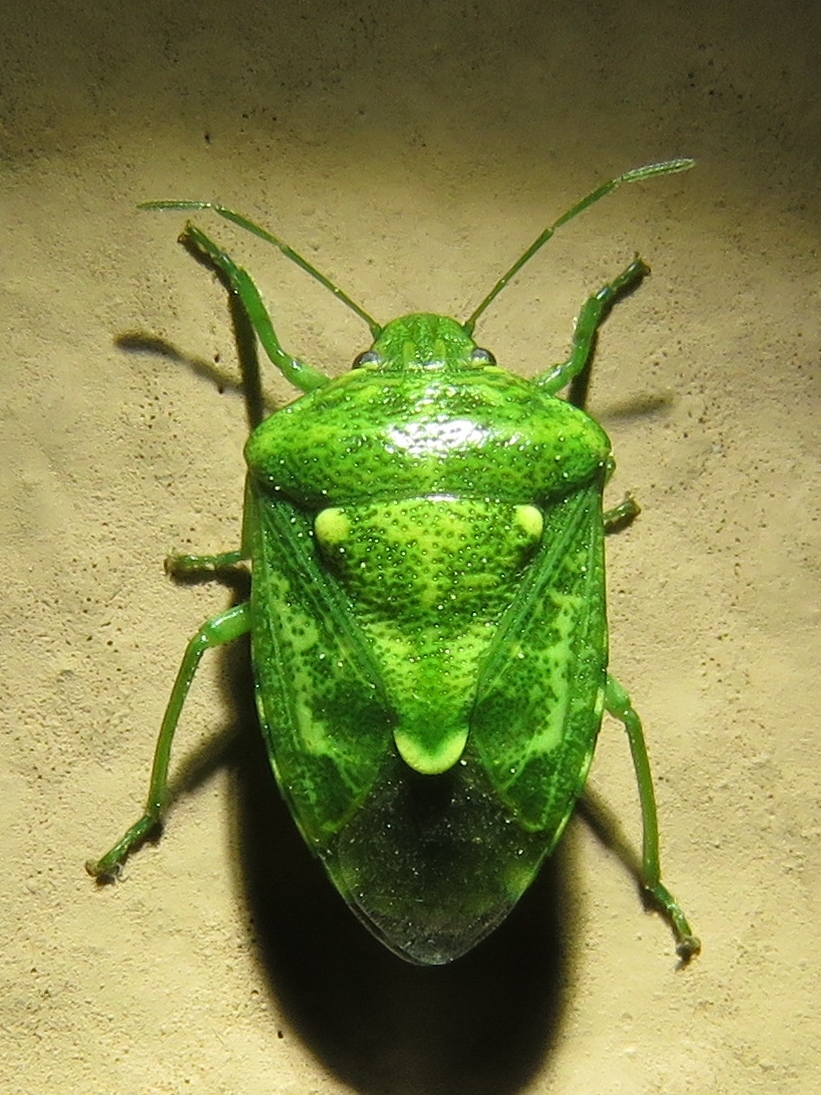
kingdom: Animalia
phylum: Arthropoda
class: Insecta
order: Hemiptera
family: Pentatomidae
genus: Banasa
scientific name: Banasa euchlora
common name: Cedar berry bug
